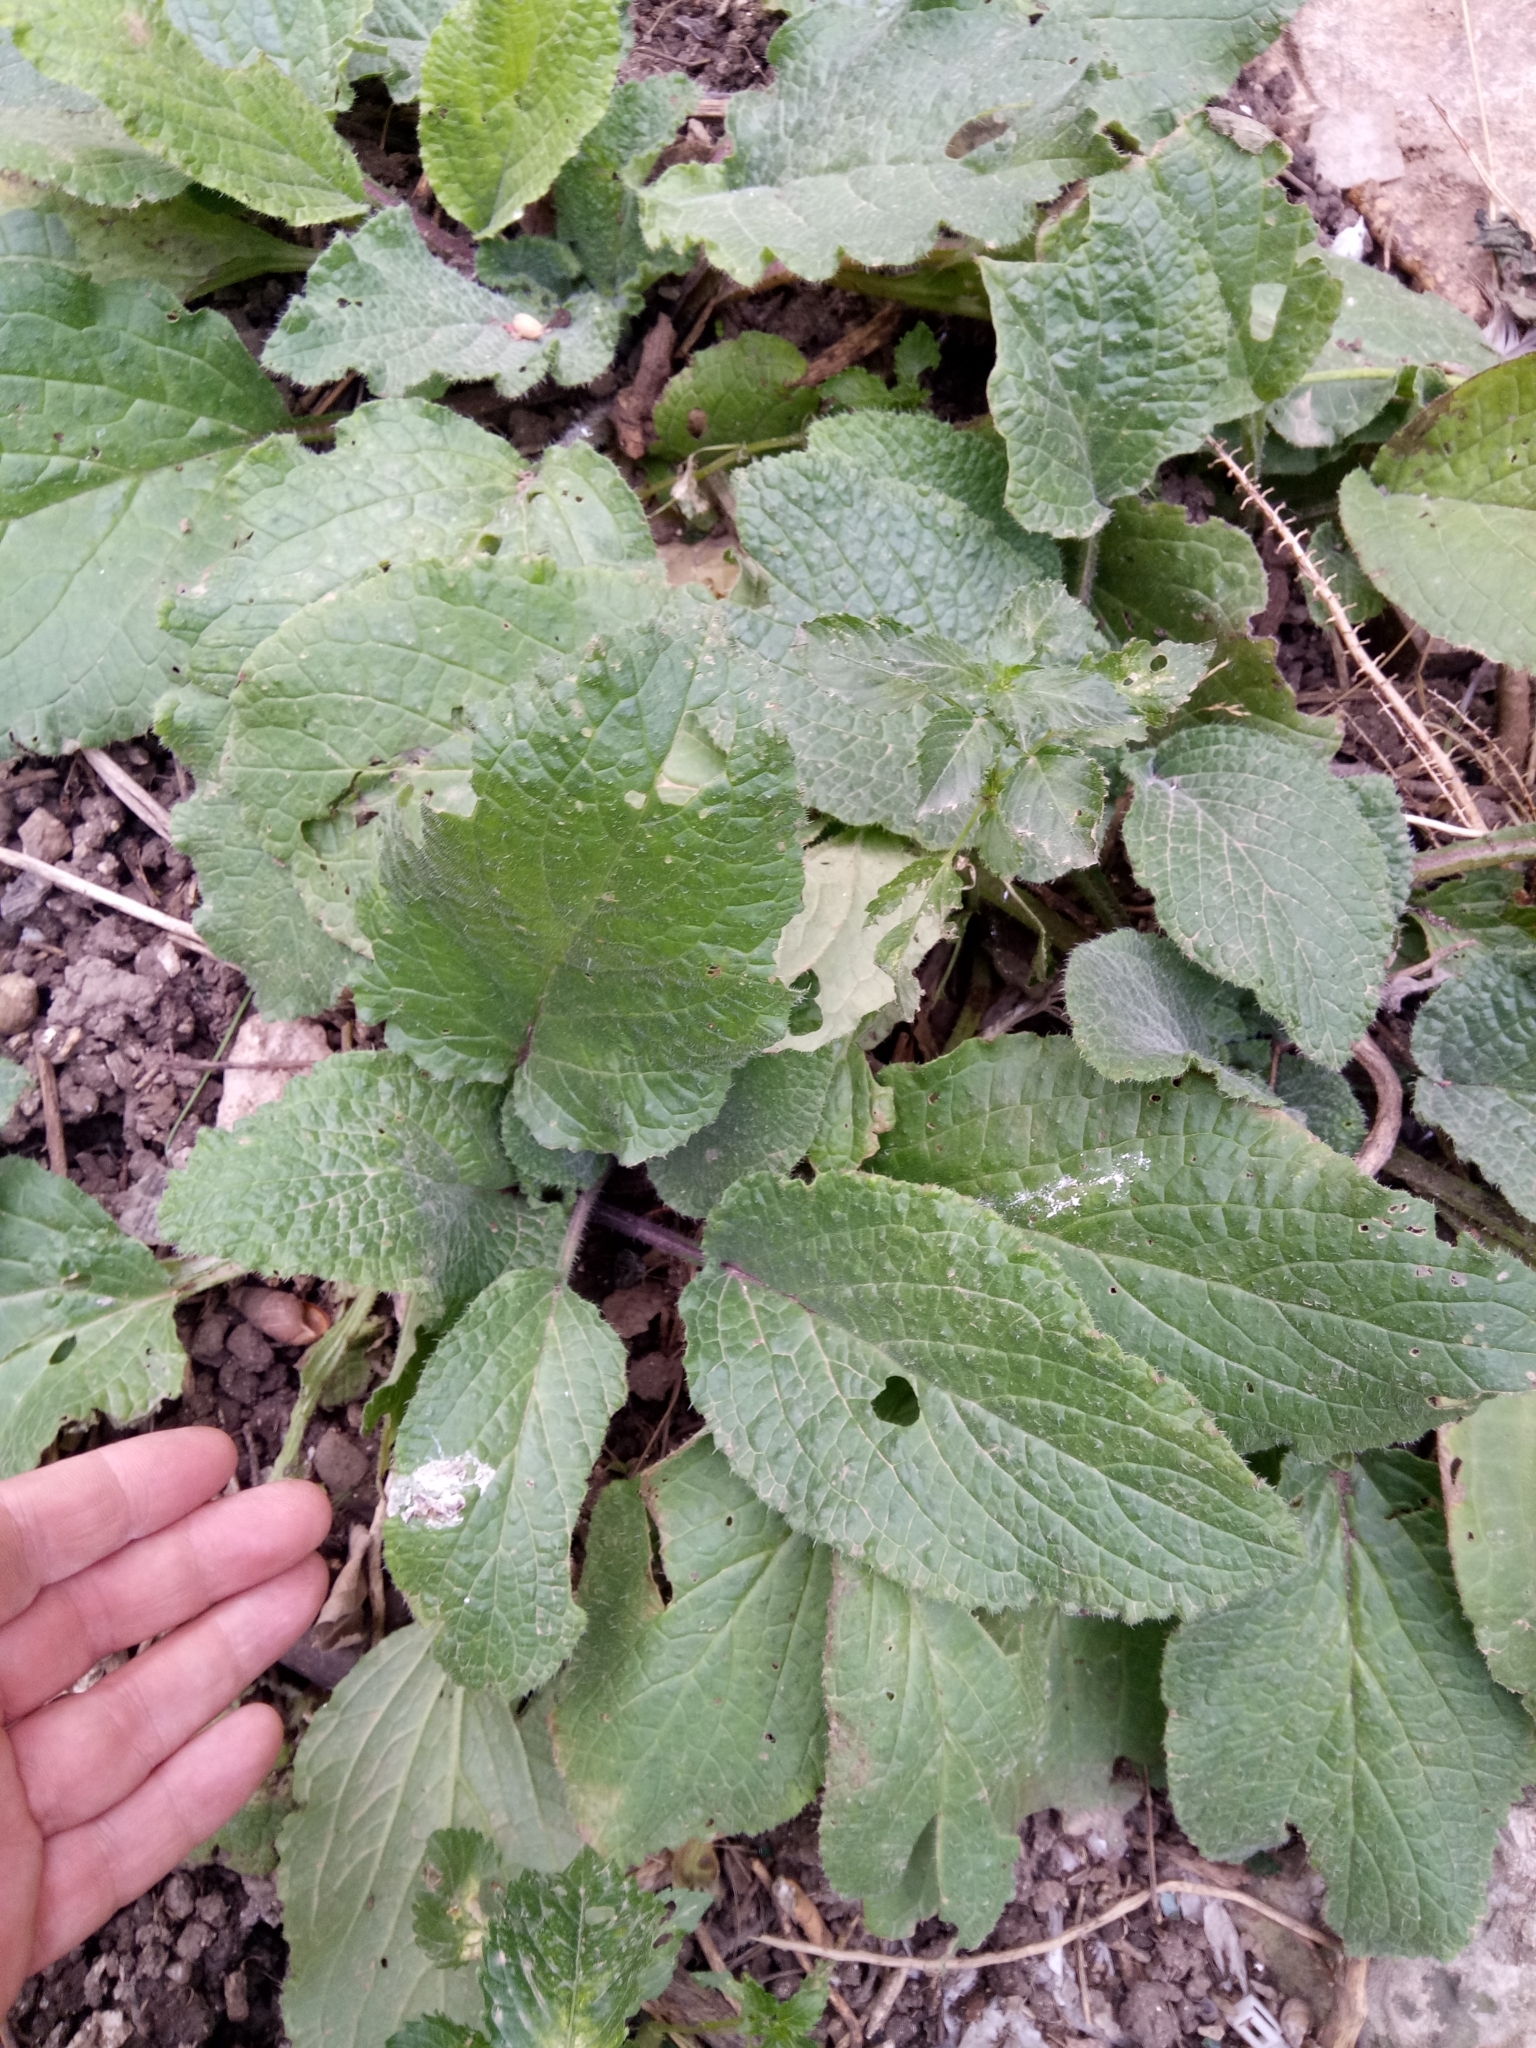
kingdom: Plantae
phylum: Tracheophyta
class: Magnoliopsida
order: Boraginales
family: Boraginaceae
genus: Borago
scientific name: Borago officinalis
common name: Borage
